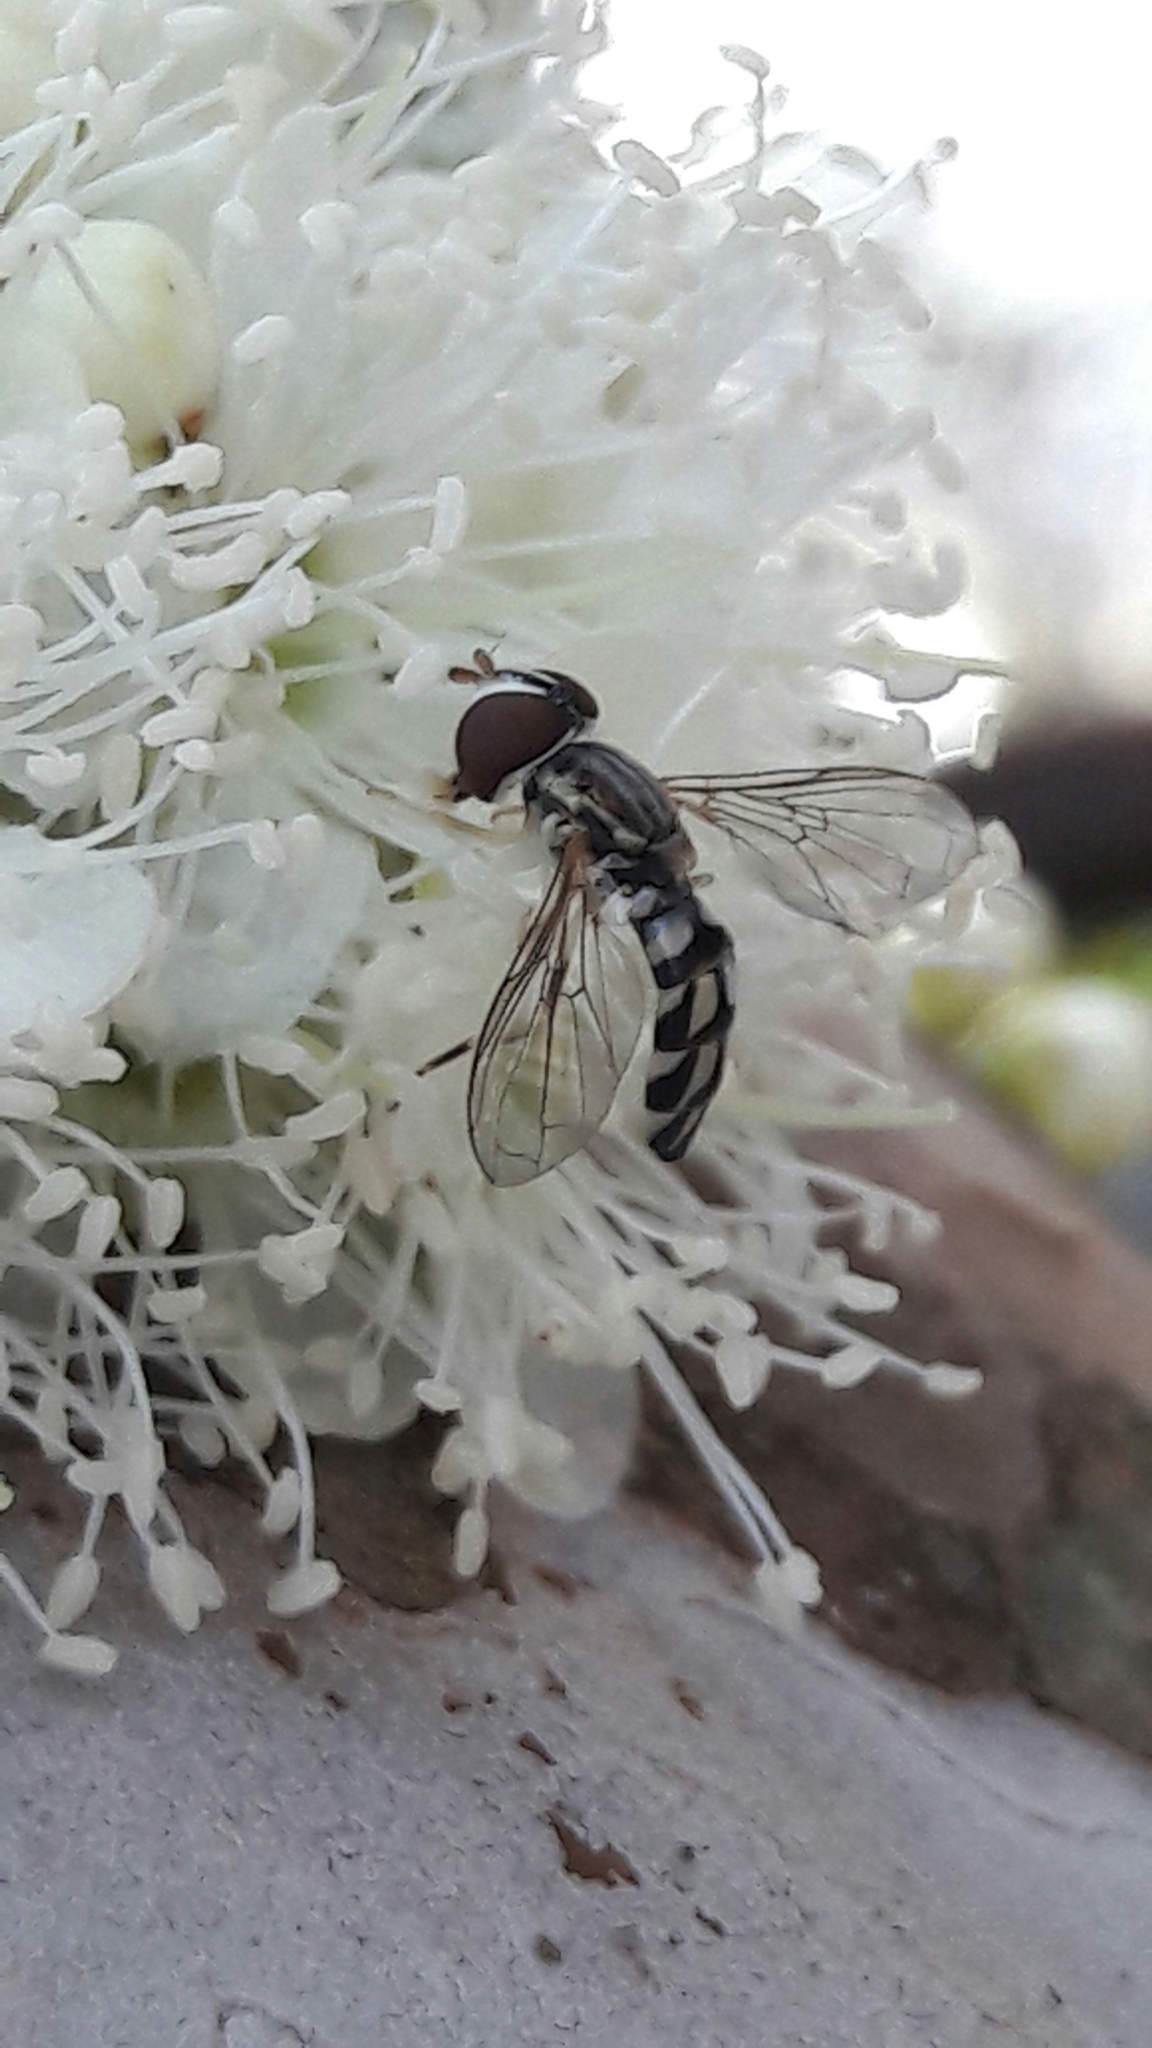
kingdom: Animalia
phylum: Arthropoda
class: Insecta
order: Diptera
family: Syrphidae
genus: Nuntianus
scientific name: Nuntianus obliquus
